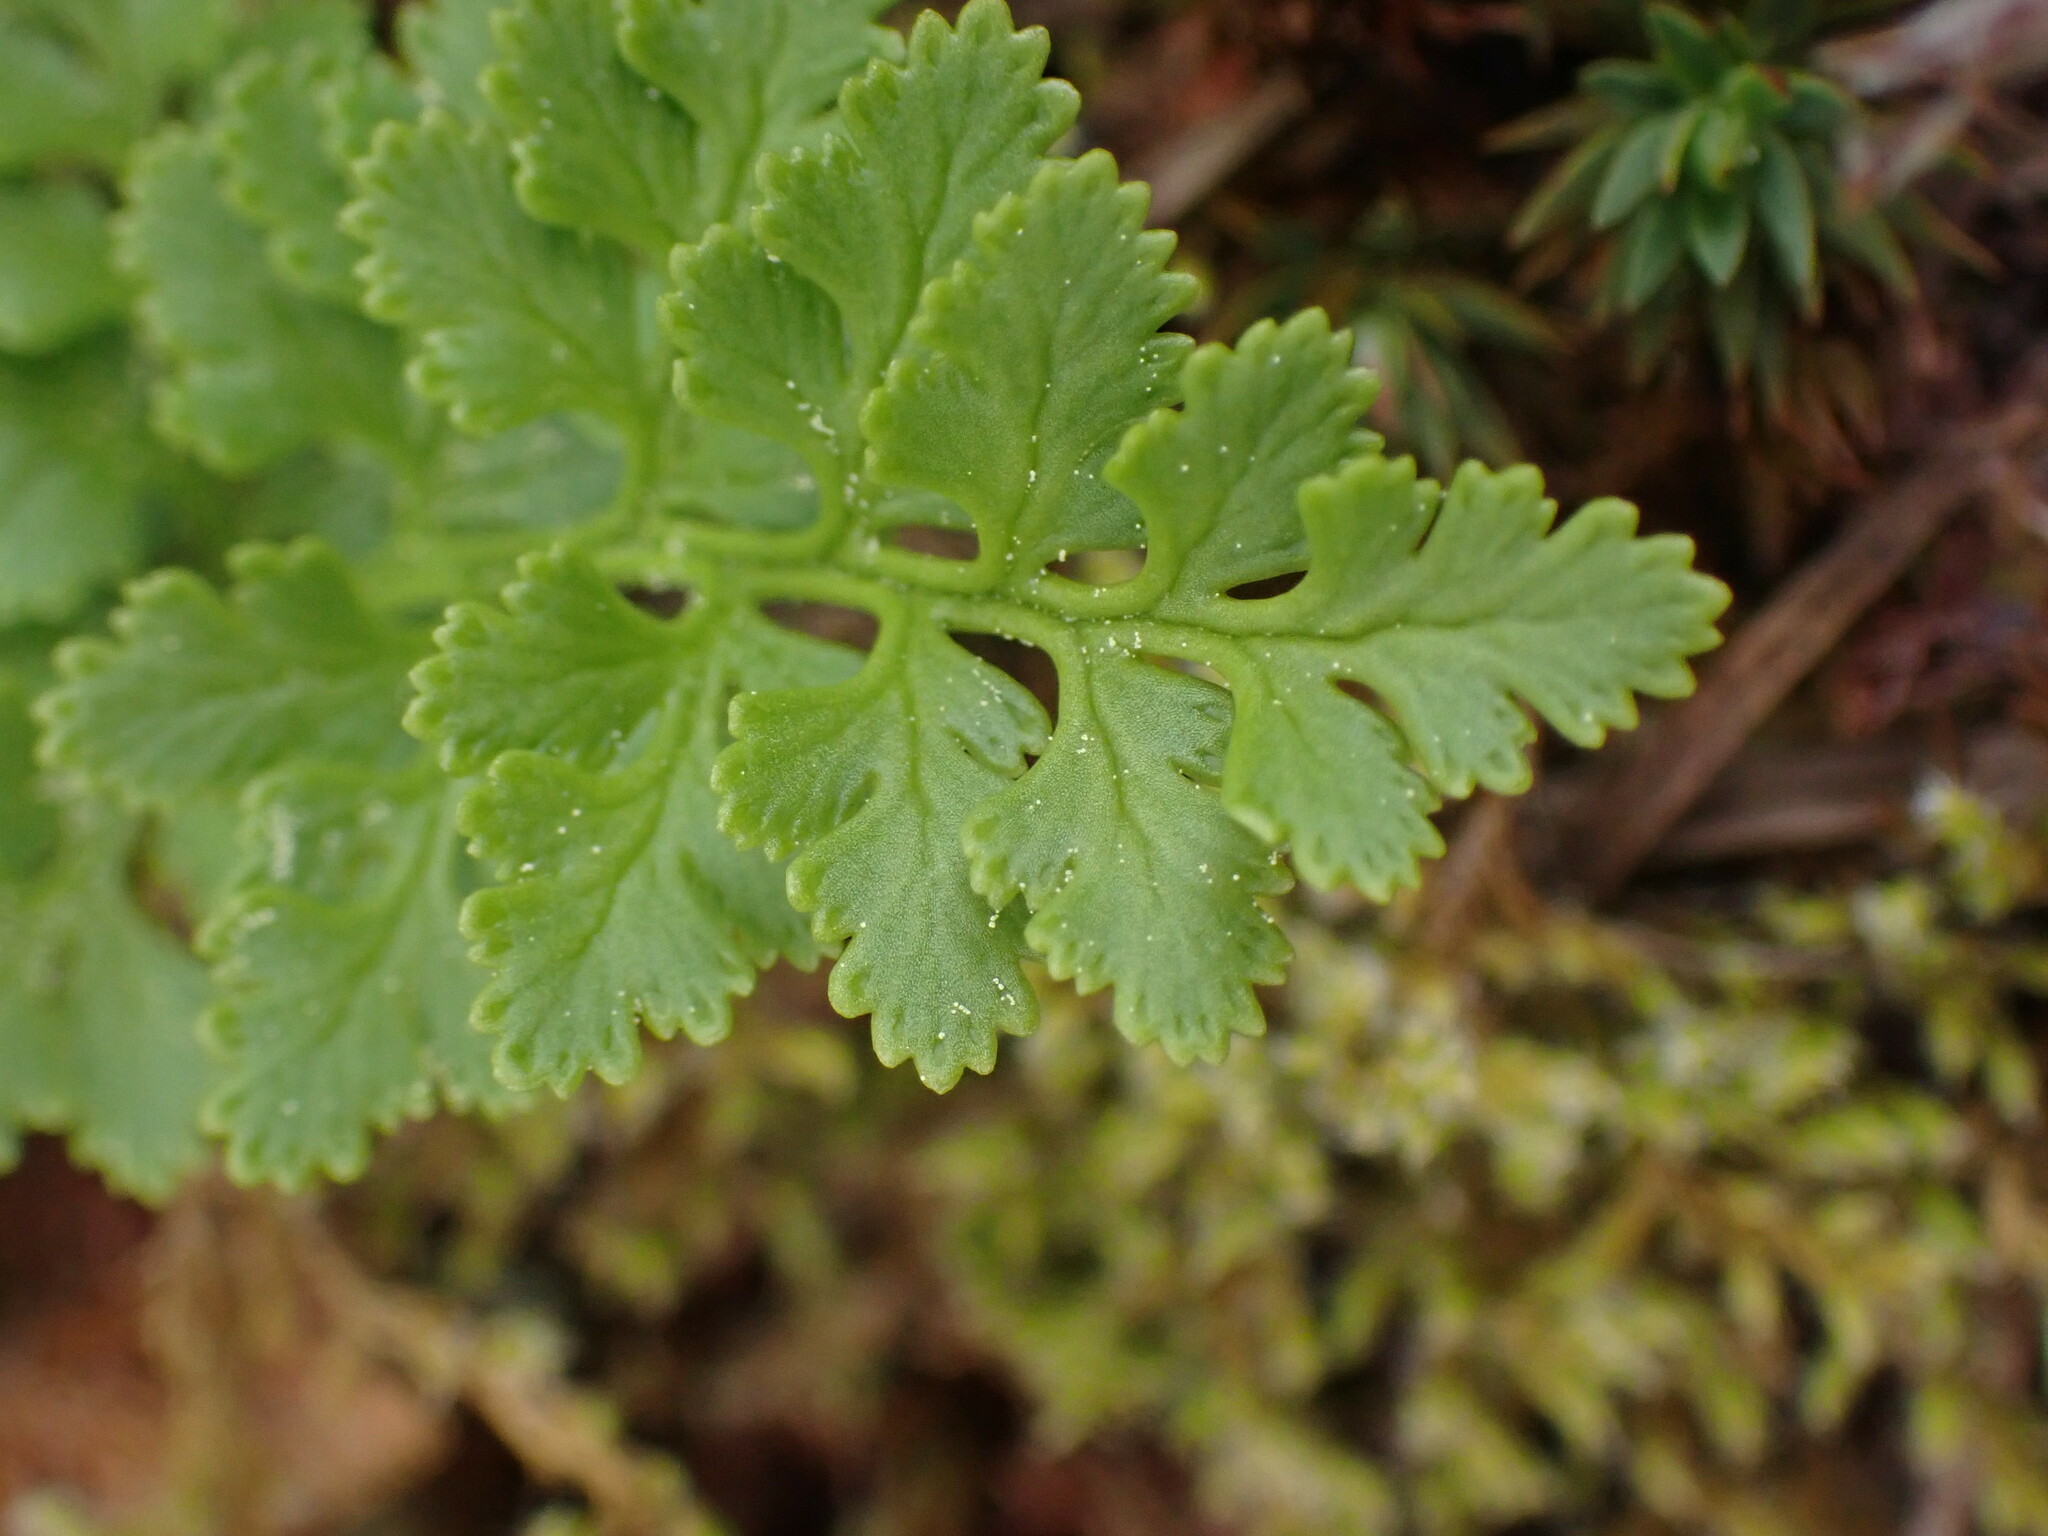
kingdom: Plantae
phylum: Tracheophyta
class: Polypodiopsida
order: Polypodiales
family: Pteridaceae
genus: Cryptogramma
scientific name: Cryptogramma acrostichoides
